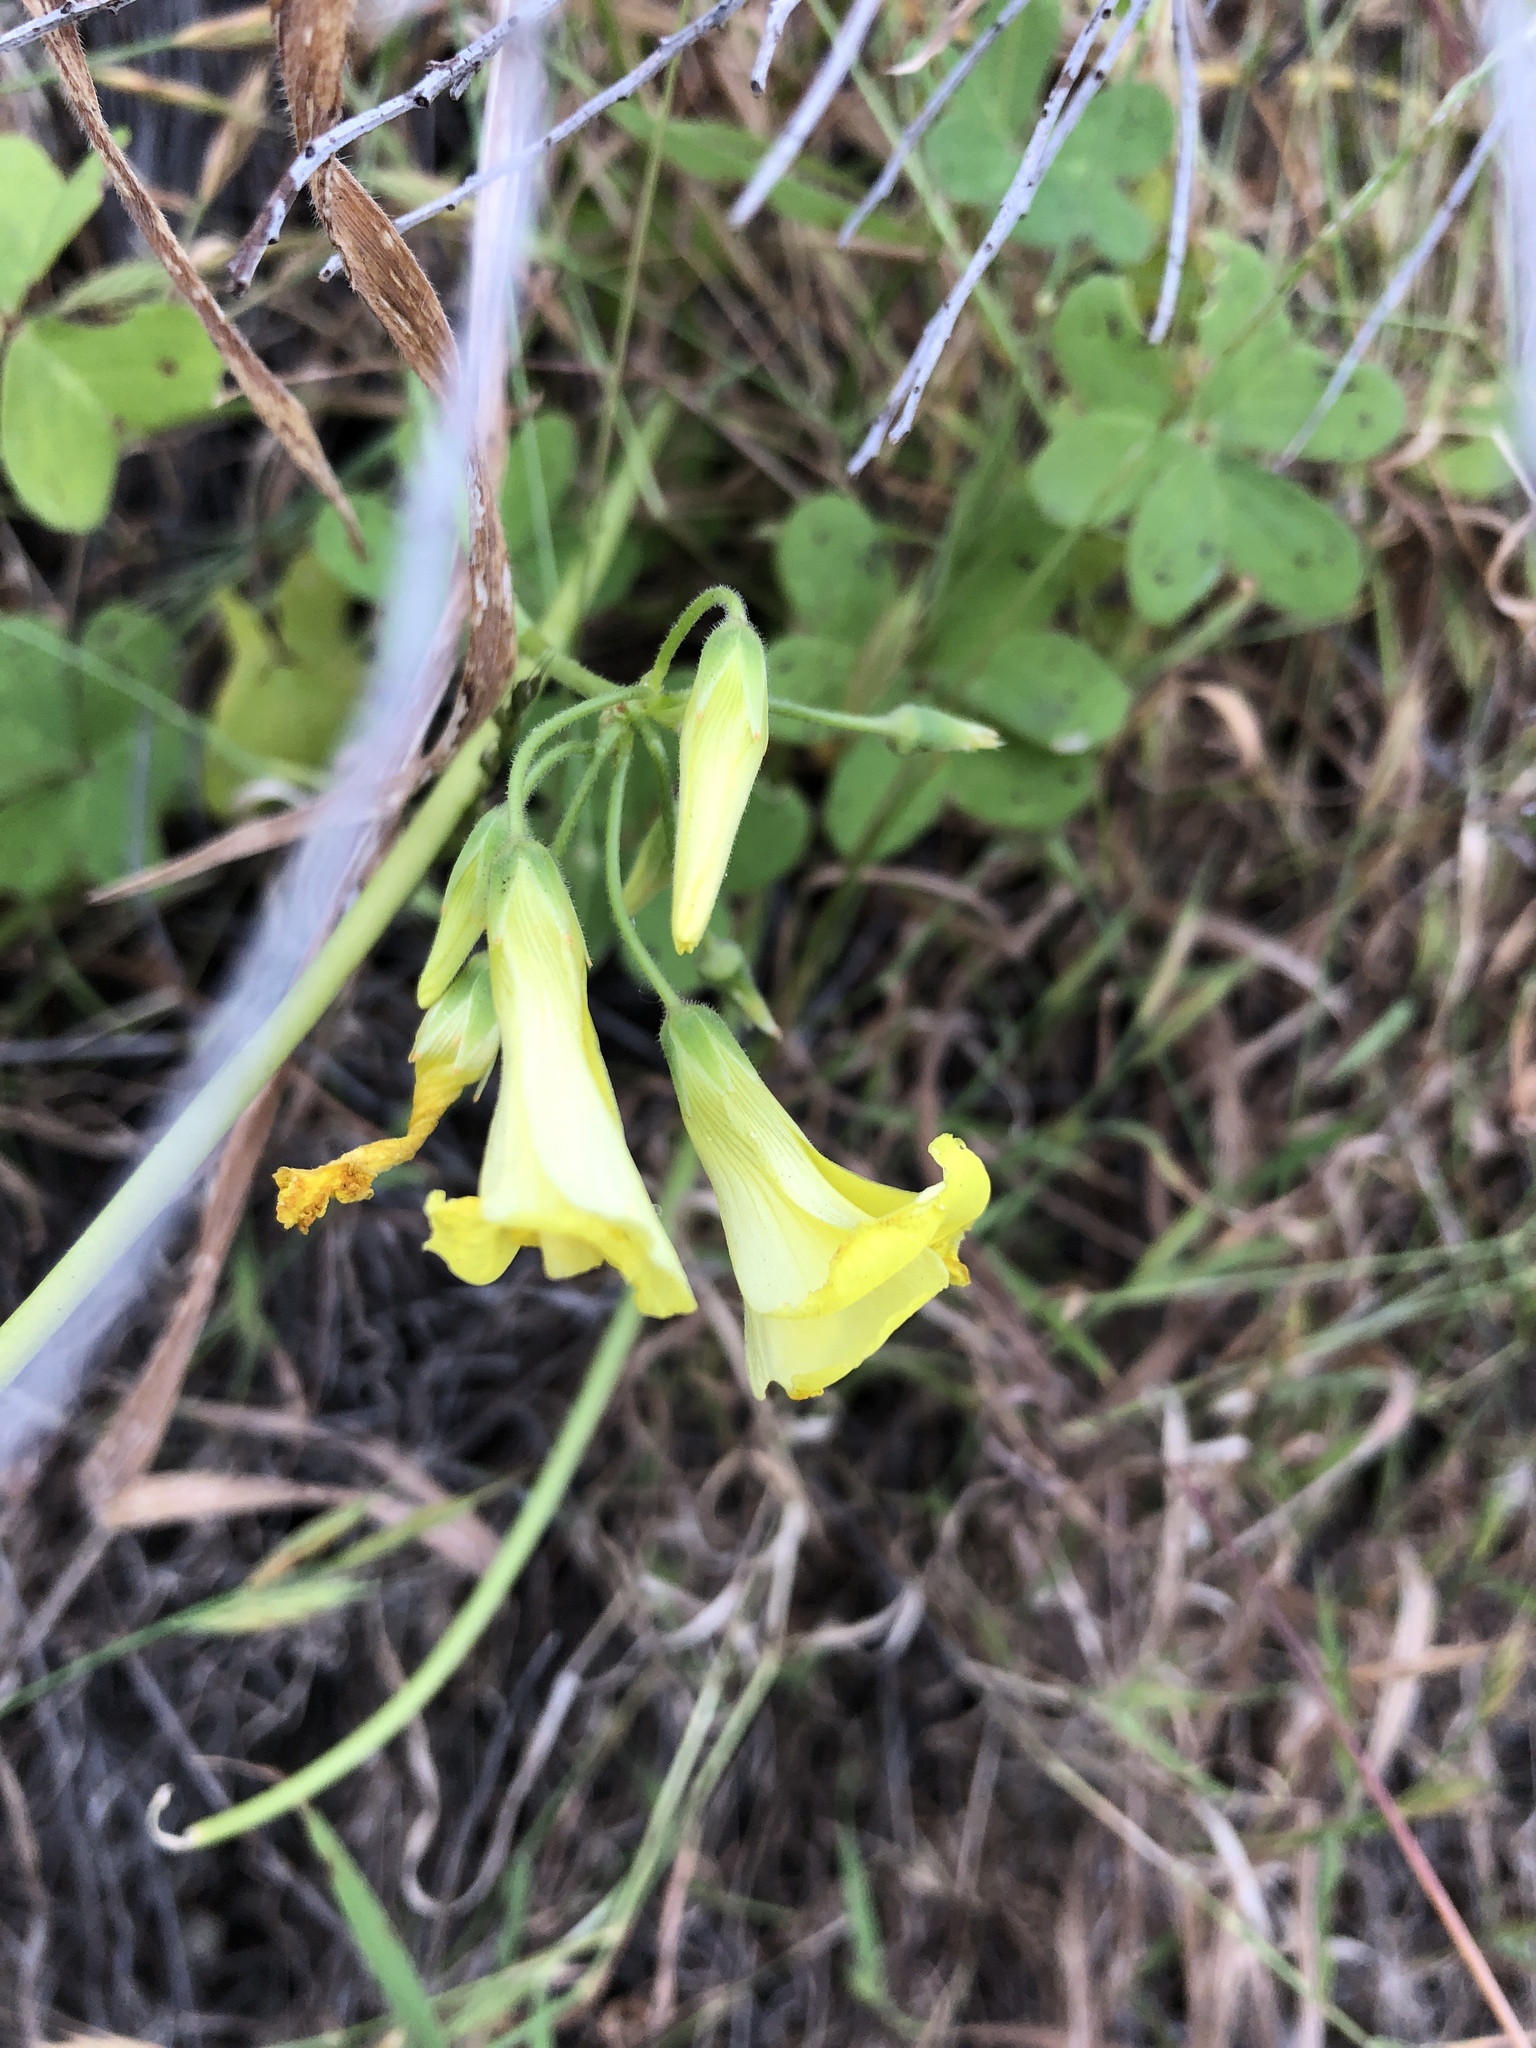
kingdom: Plantae
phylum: Tracheophyta
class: Magnoliopsida
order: Oxalidales
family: Oxalidaceae
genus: Oxalis
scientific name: Oxalis pes-caprae
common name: Bermuda-buttercup
